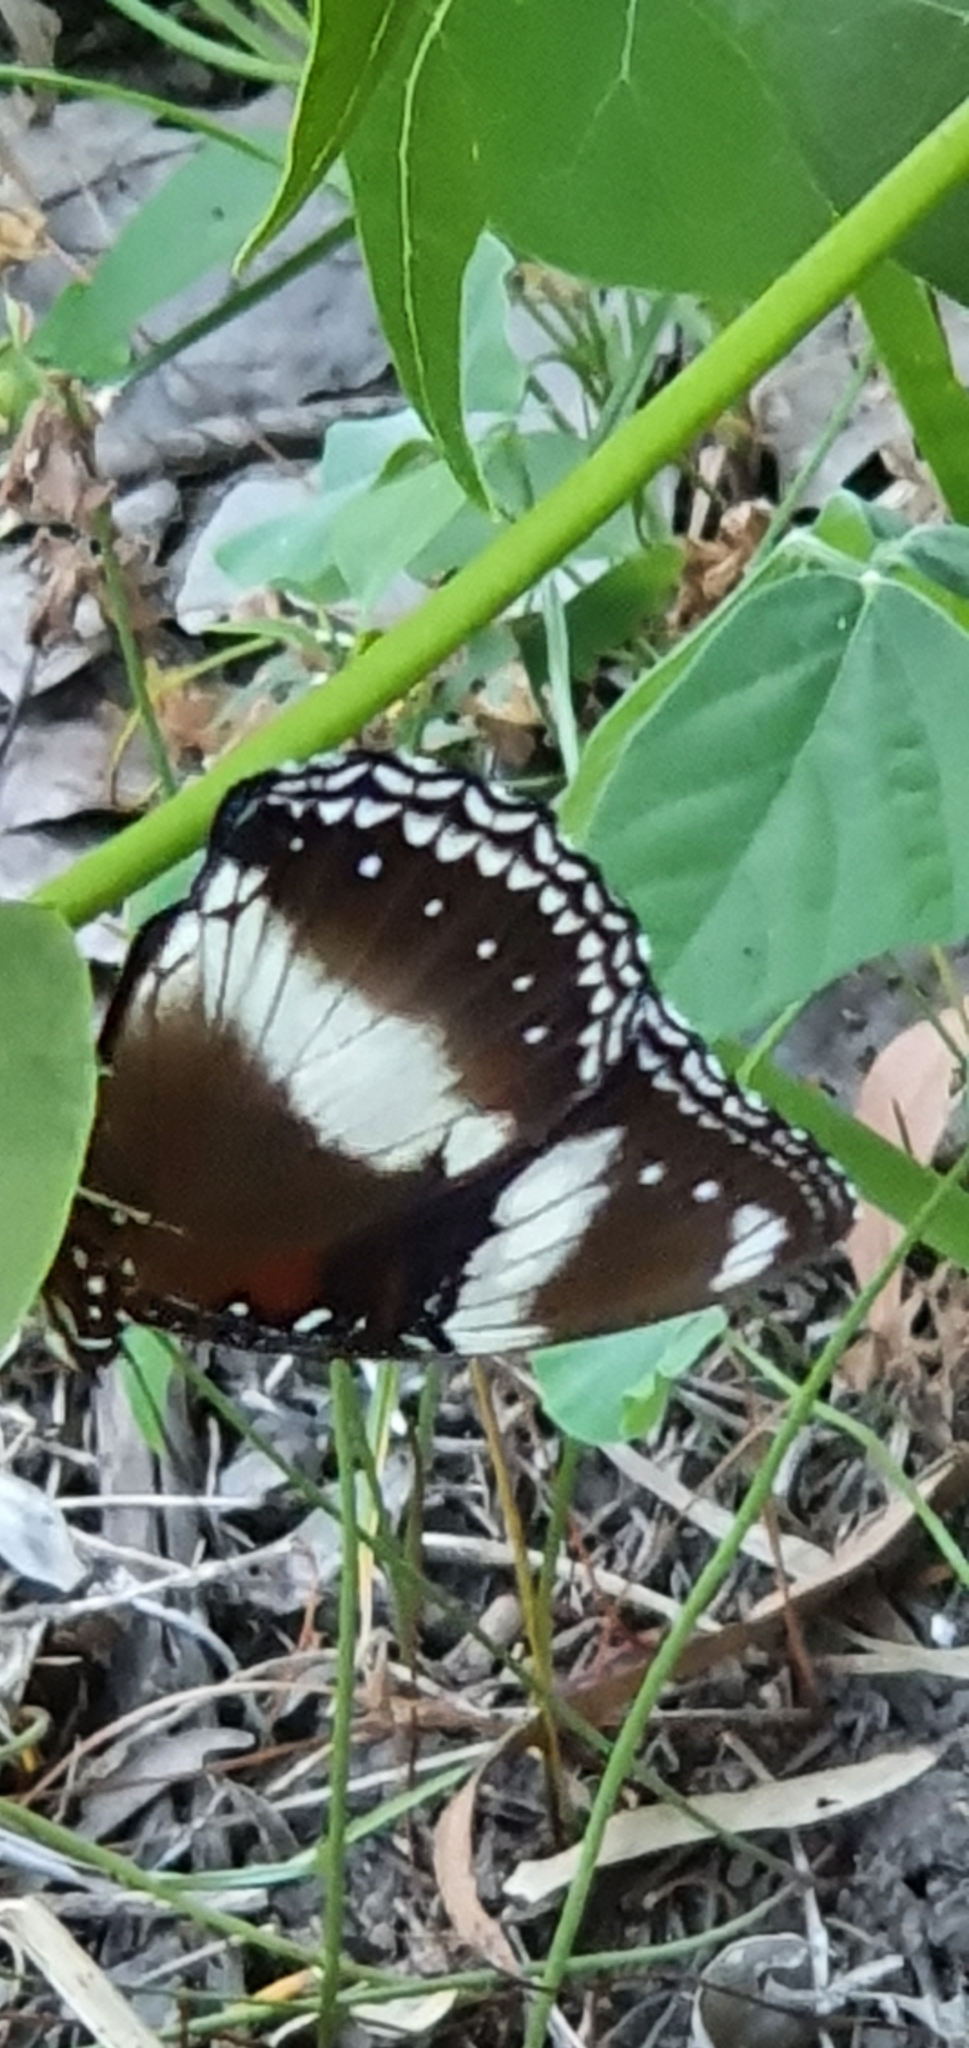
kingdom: Animalia
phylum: Arthropoda
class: Insecta
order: Lepidoptera
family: Nymphalidae
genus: Hypolimnas
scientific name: Hypolimnas bolina
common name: Great eggfly
